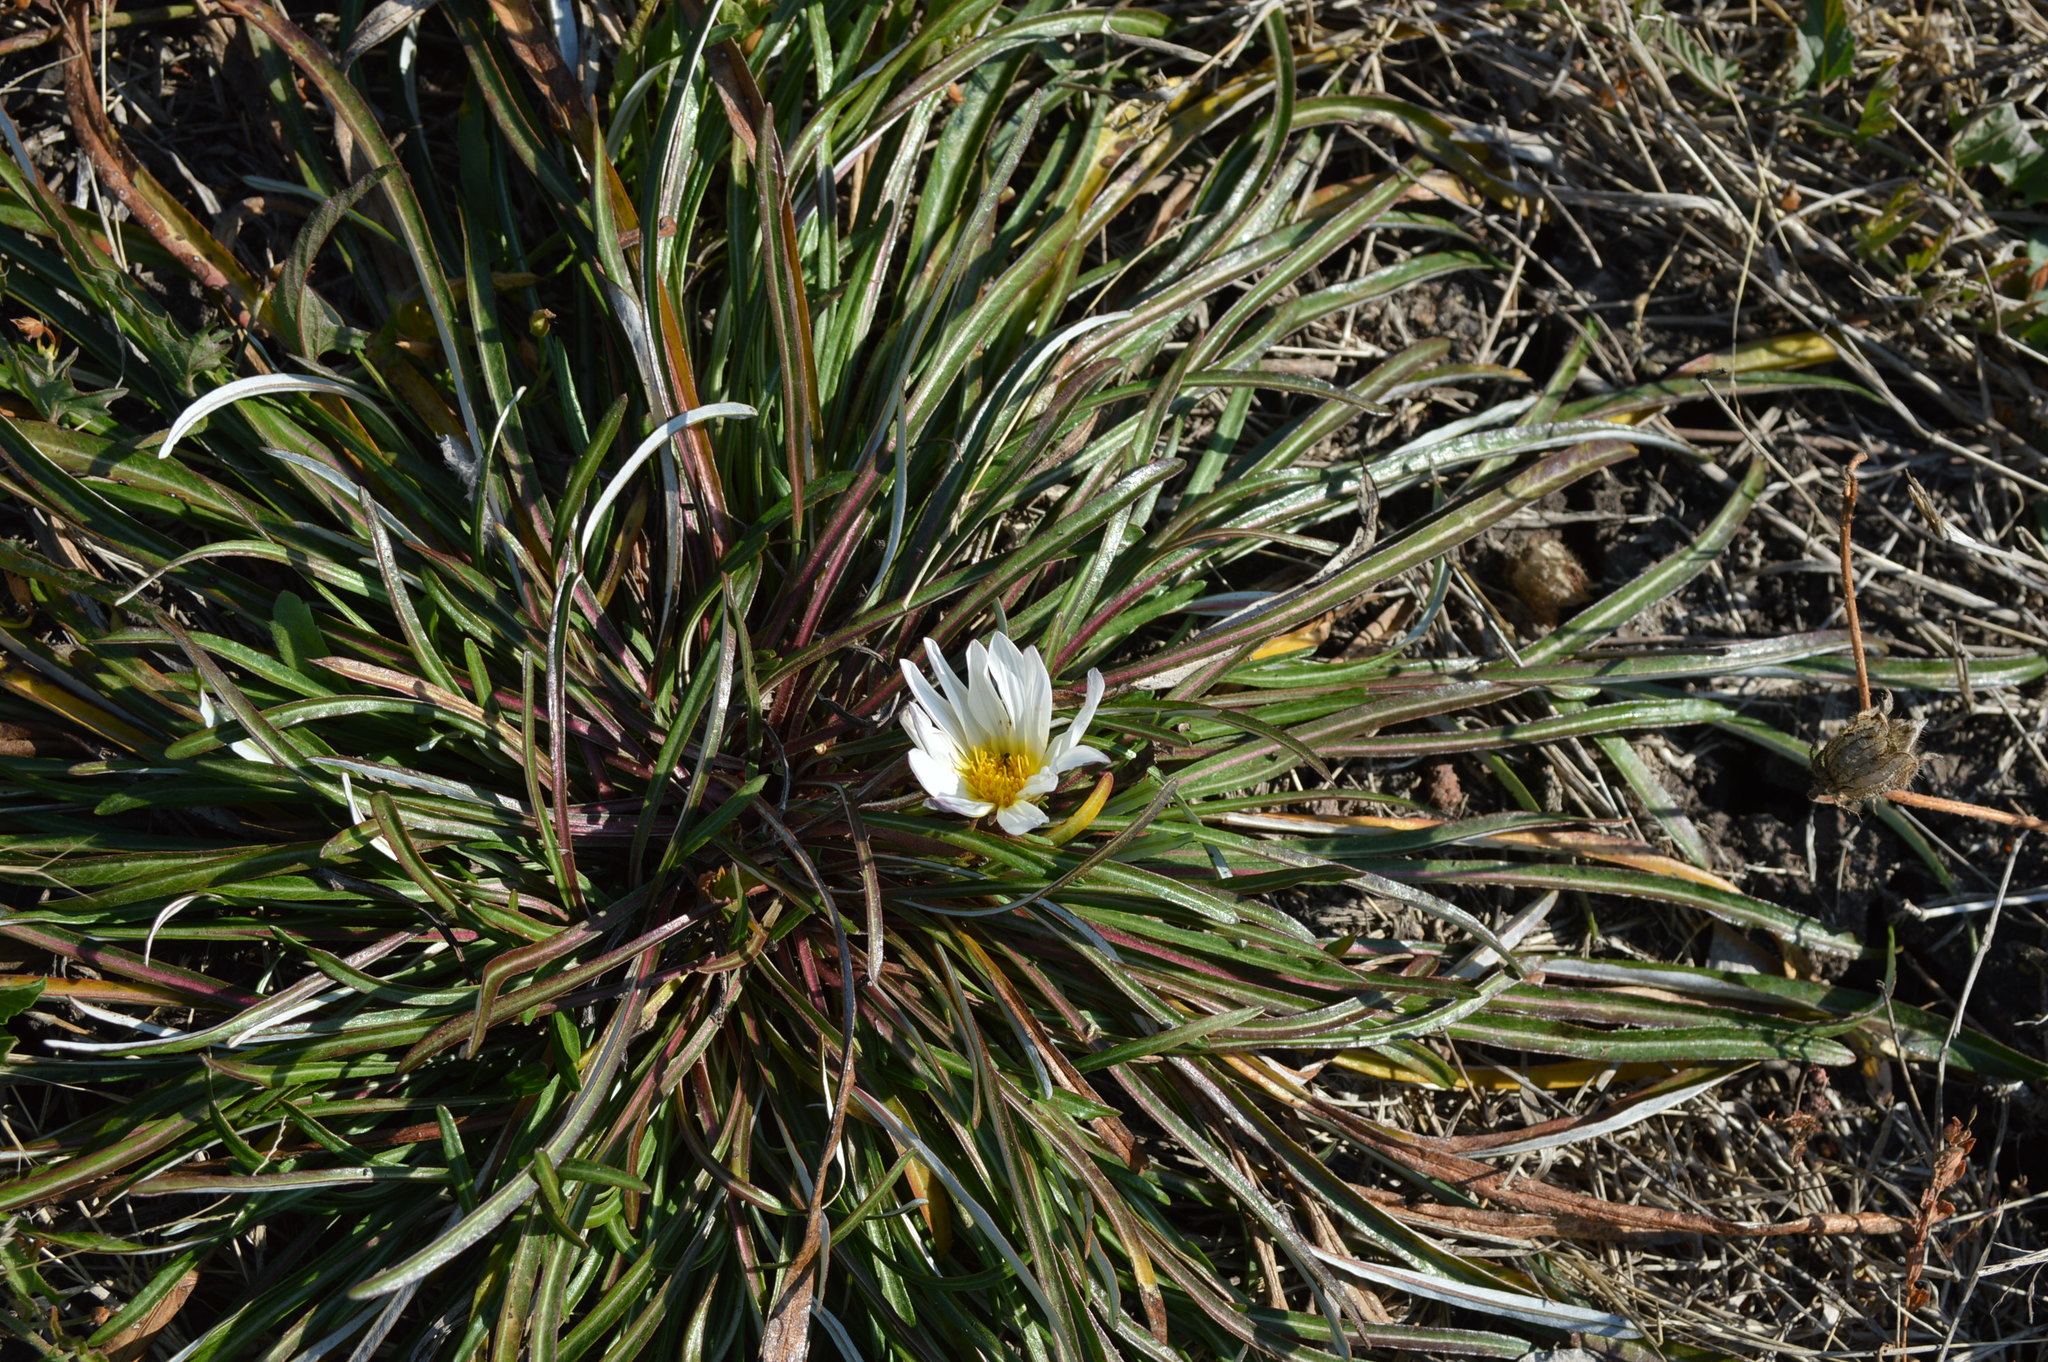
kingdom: Plantae
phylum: Tracheophyta
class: Magnoliopsida
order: Asterales
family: Asteraceae
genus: Gazania
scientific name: Gazania krebsiana
